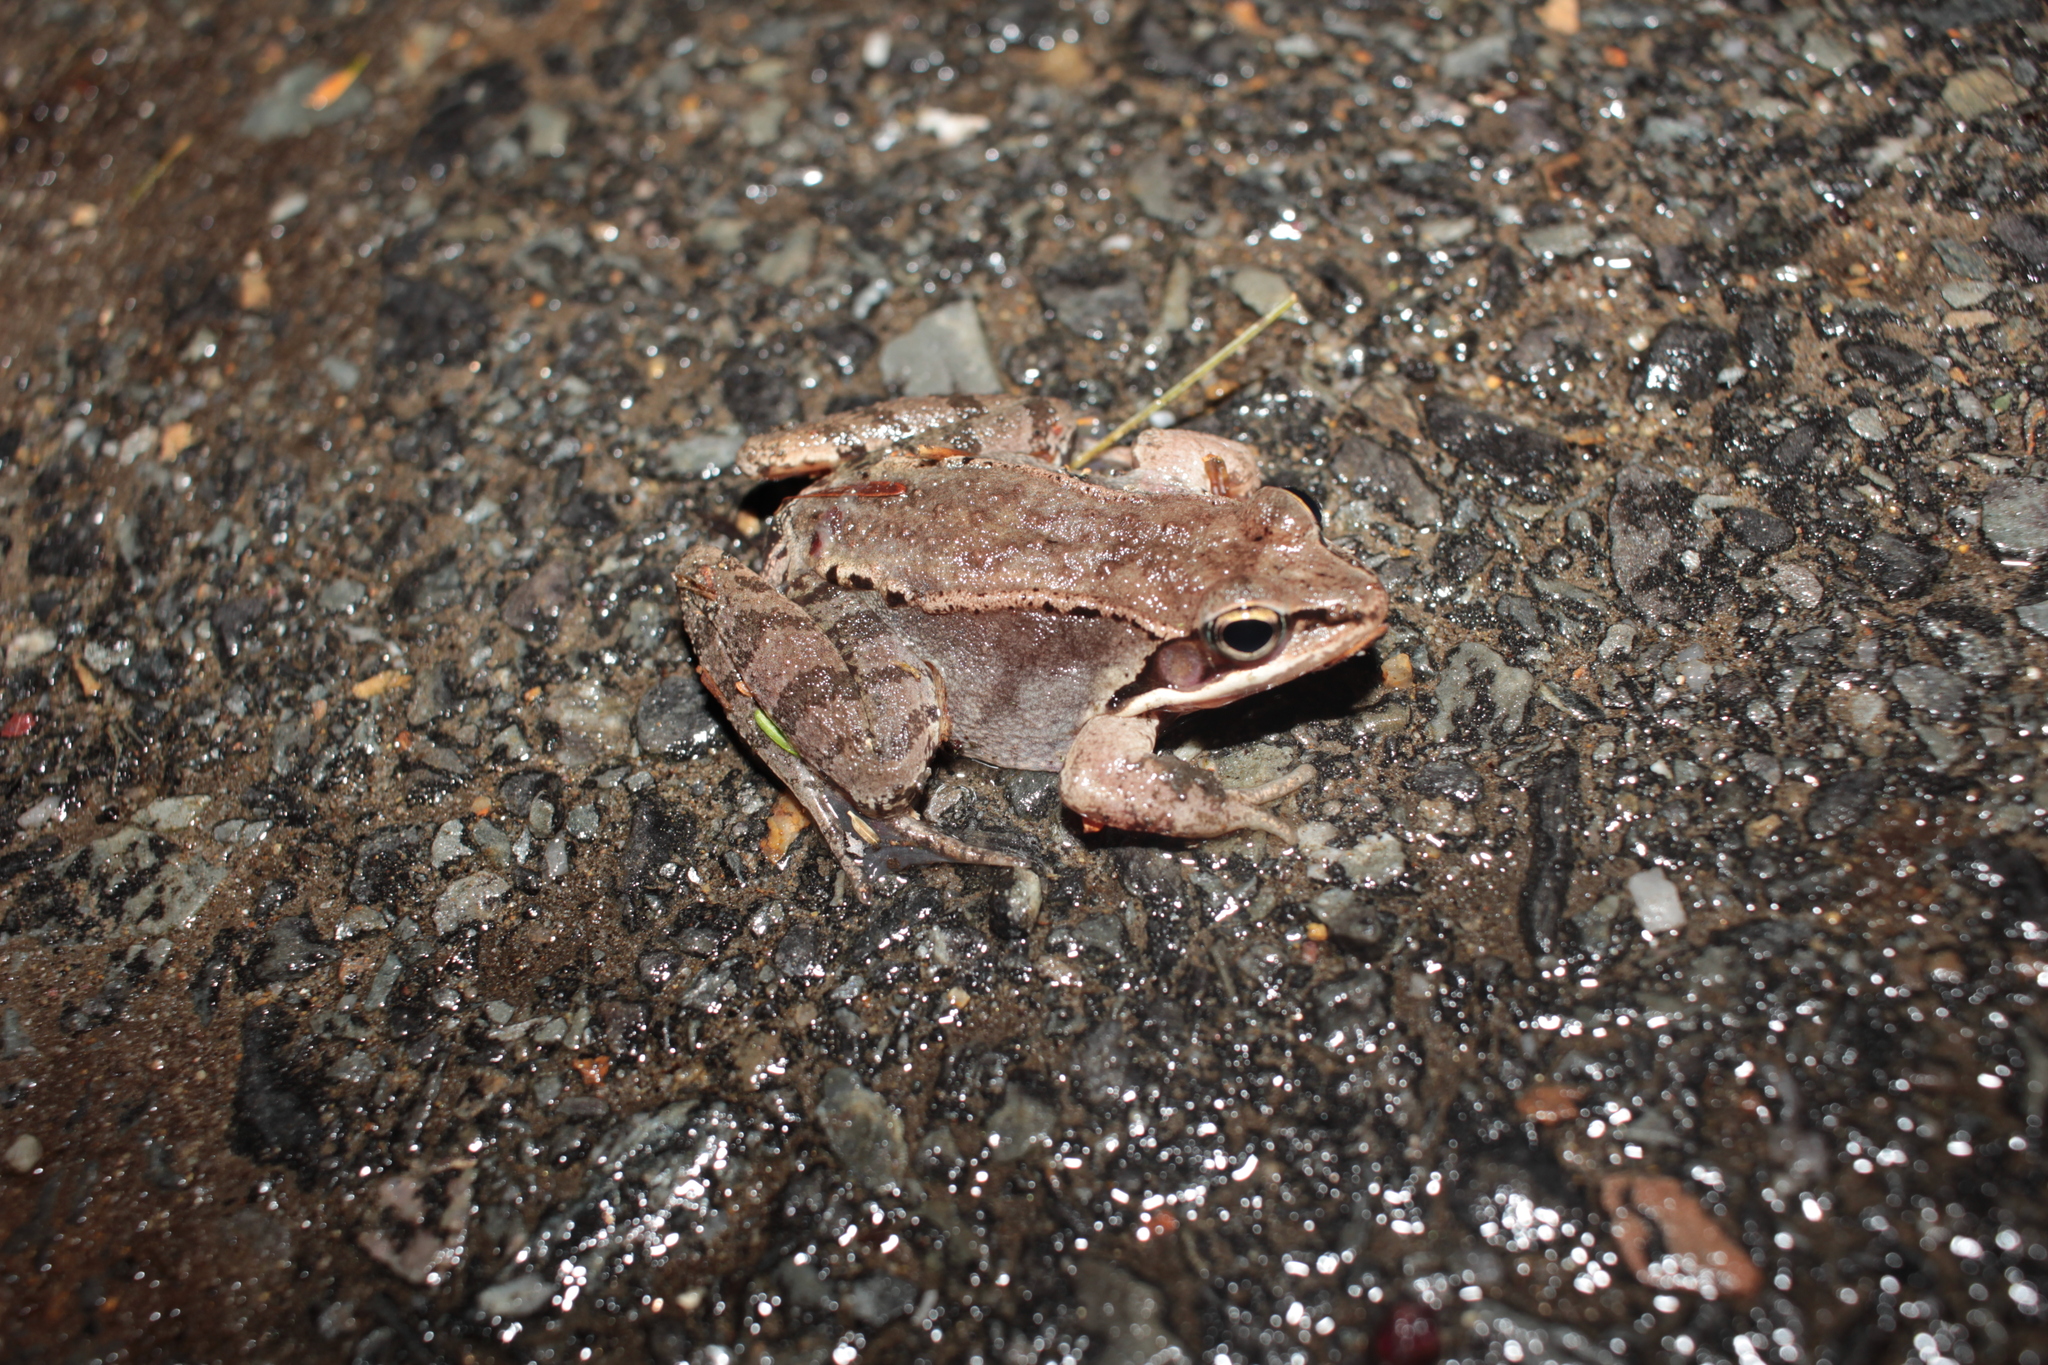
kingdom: Animalia
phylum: Chordata
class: Amphibia
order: Anura
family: Ranidae
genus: Lithobates
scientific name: Lithobates sylvaticus
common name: Wood frog
